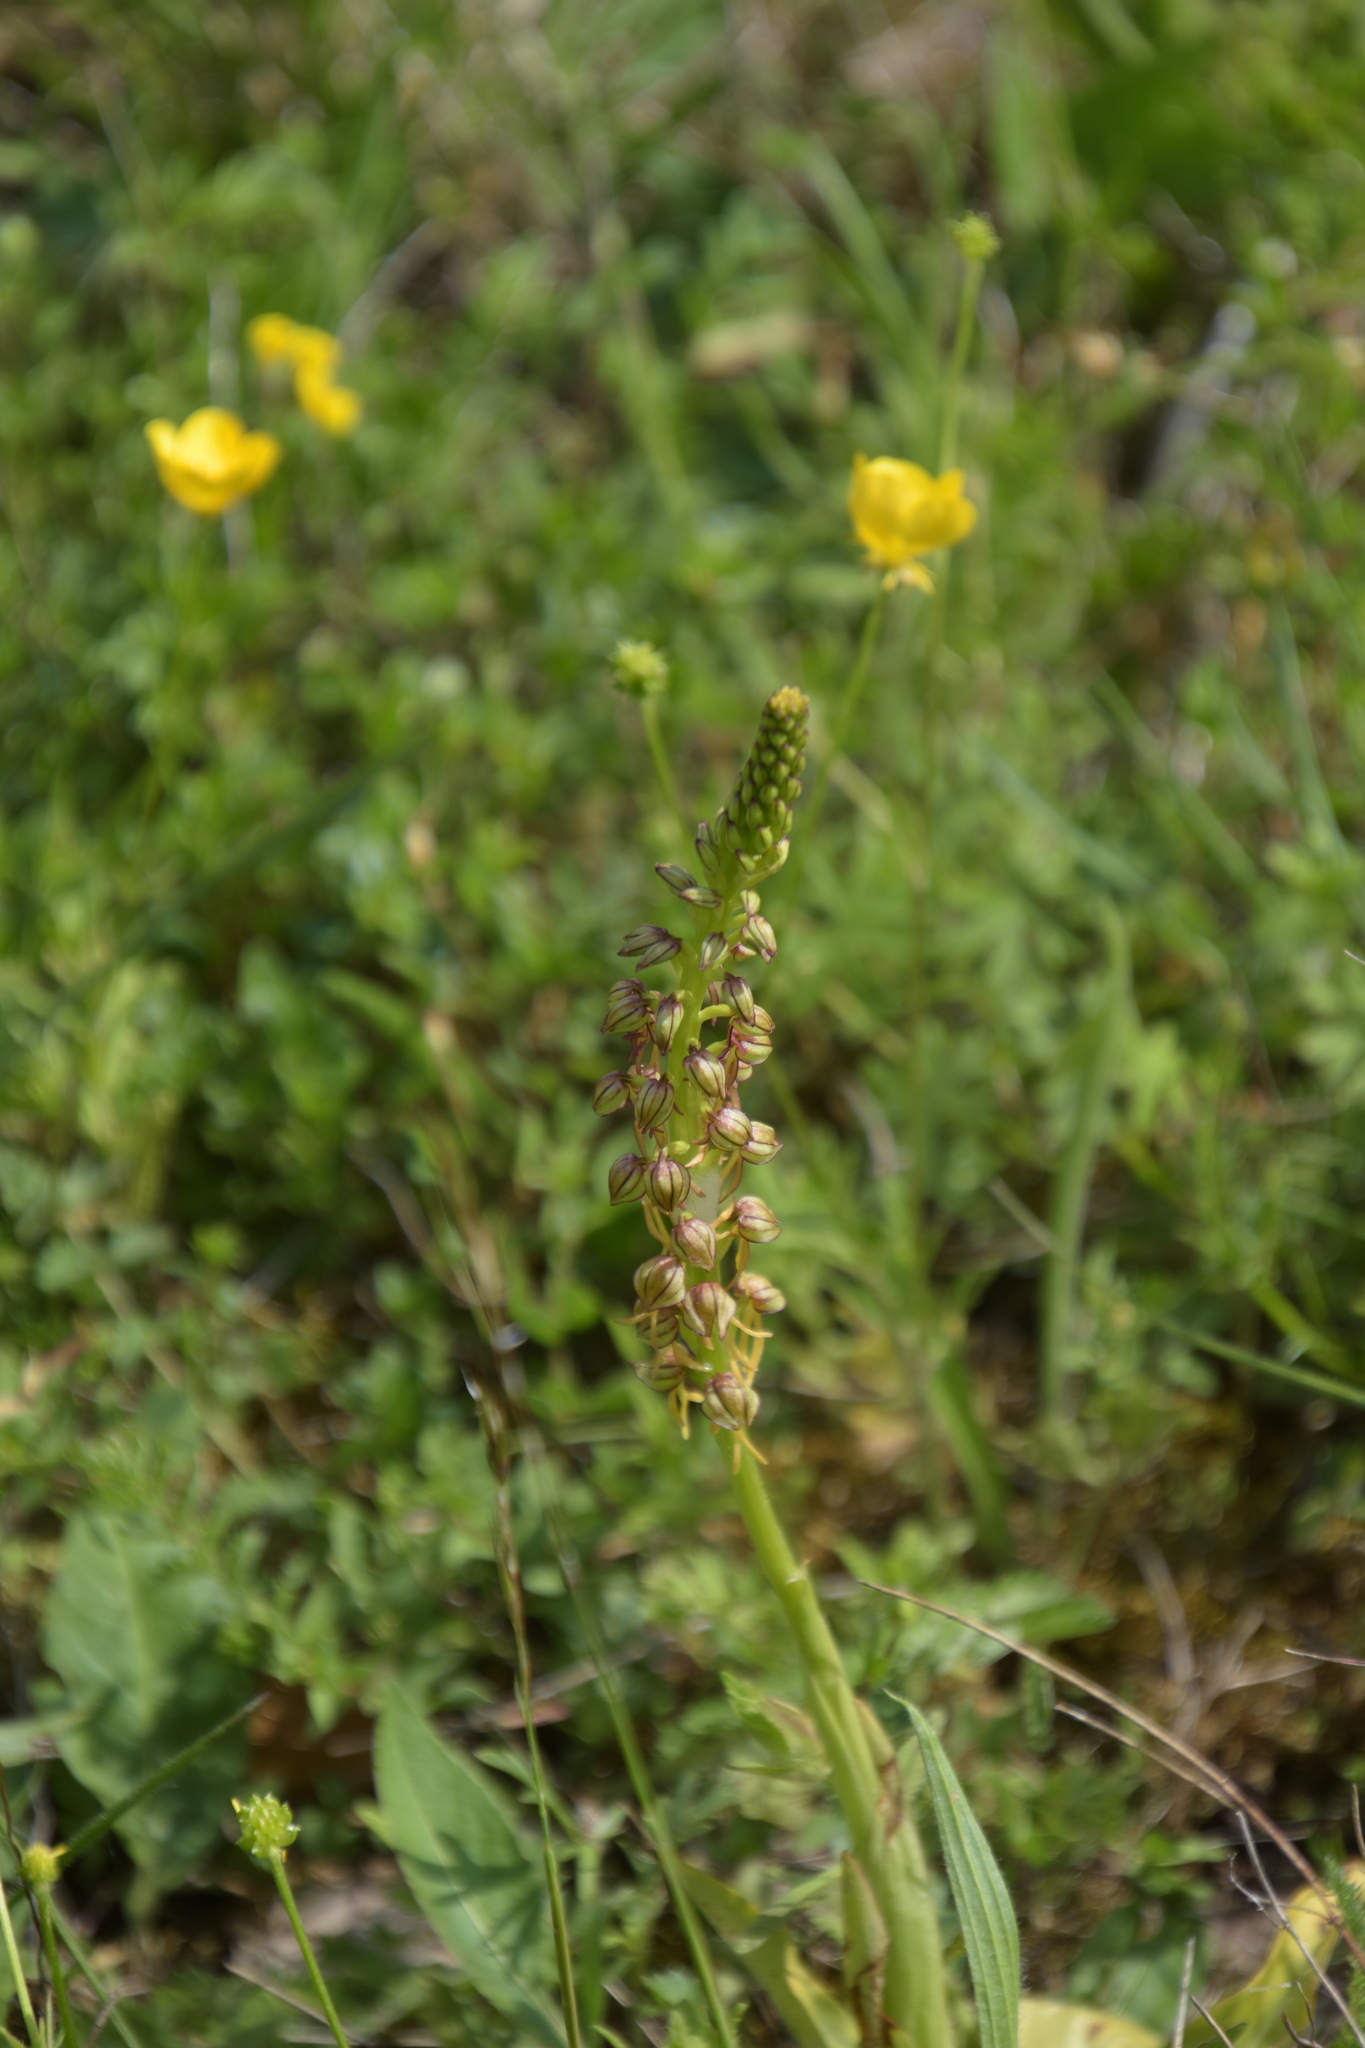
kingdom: Plantae
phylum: Tracheophyta
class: Liliopsida
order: Asparagales
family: Orchidaceae
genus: Orchis
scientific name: Orchis anthropophora
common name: Man orchid
